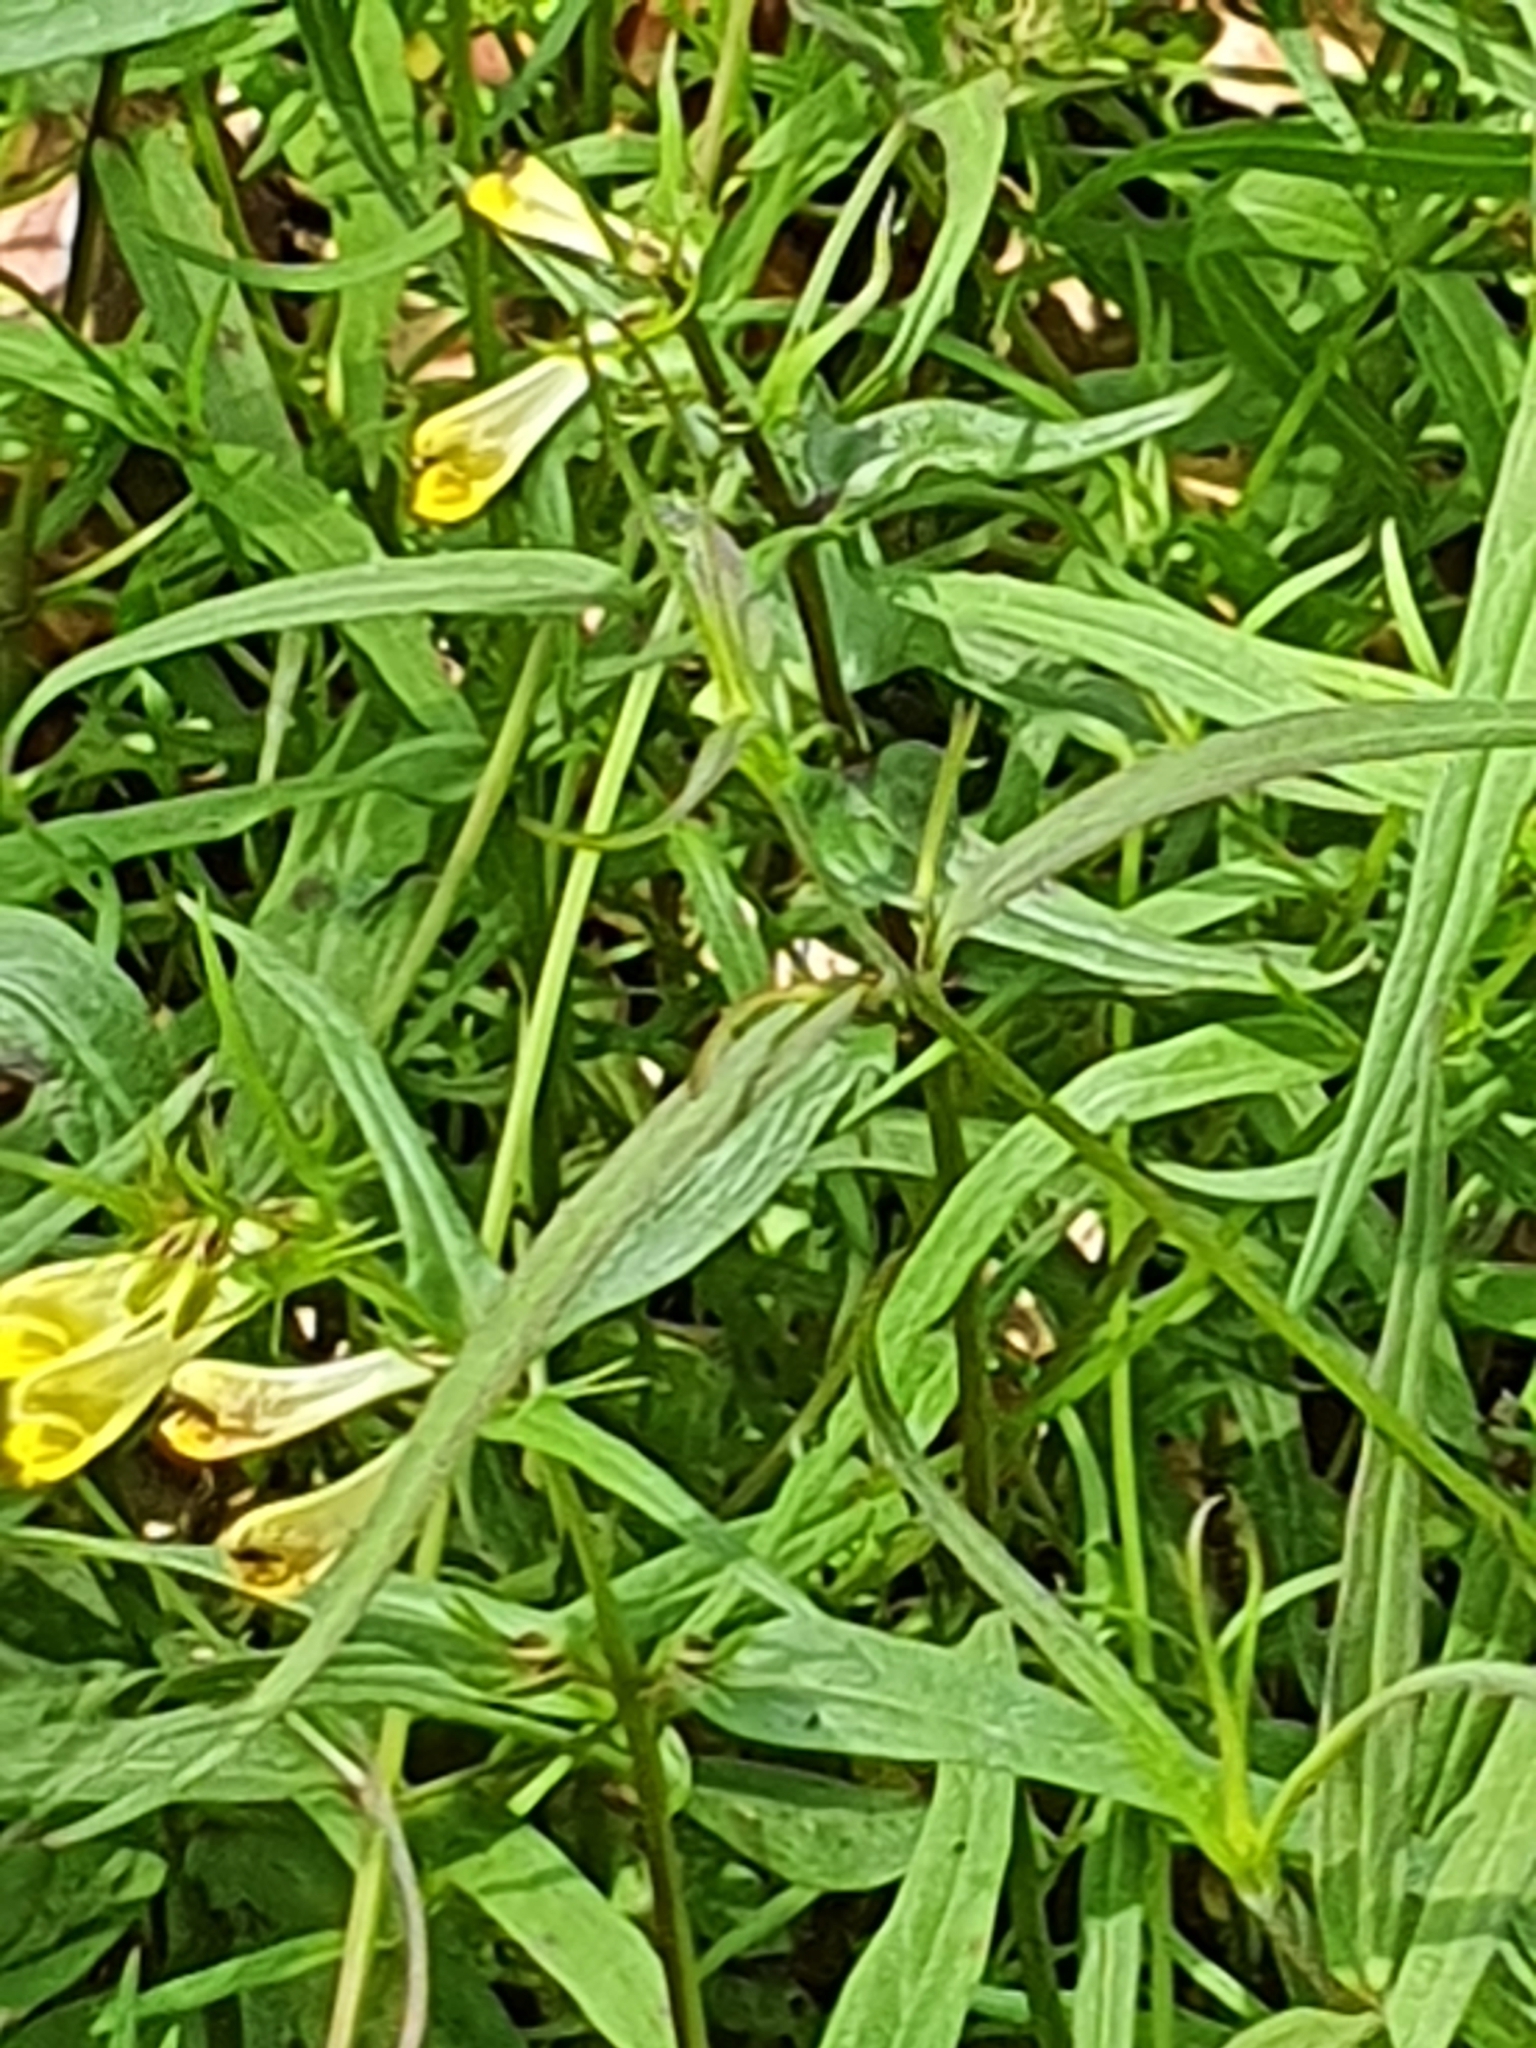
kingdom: Plantae
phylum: Tracheophyta
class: Magnoliopsida
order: Lamiales
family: Orobanchaceae
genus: Melampyrum
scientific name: Melampyrum pratense
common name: Common cow-wheat
